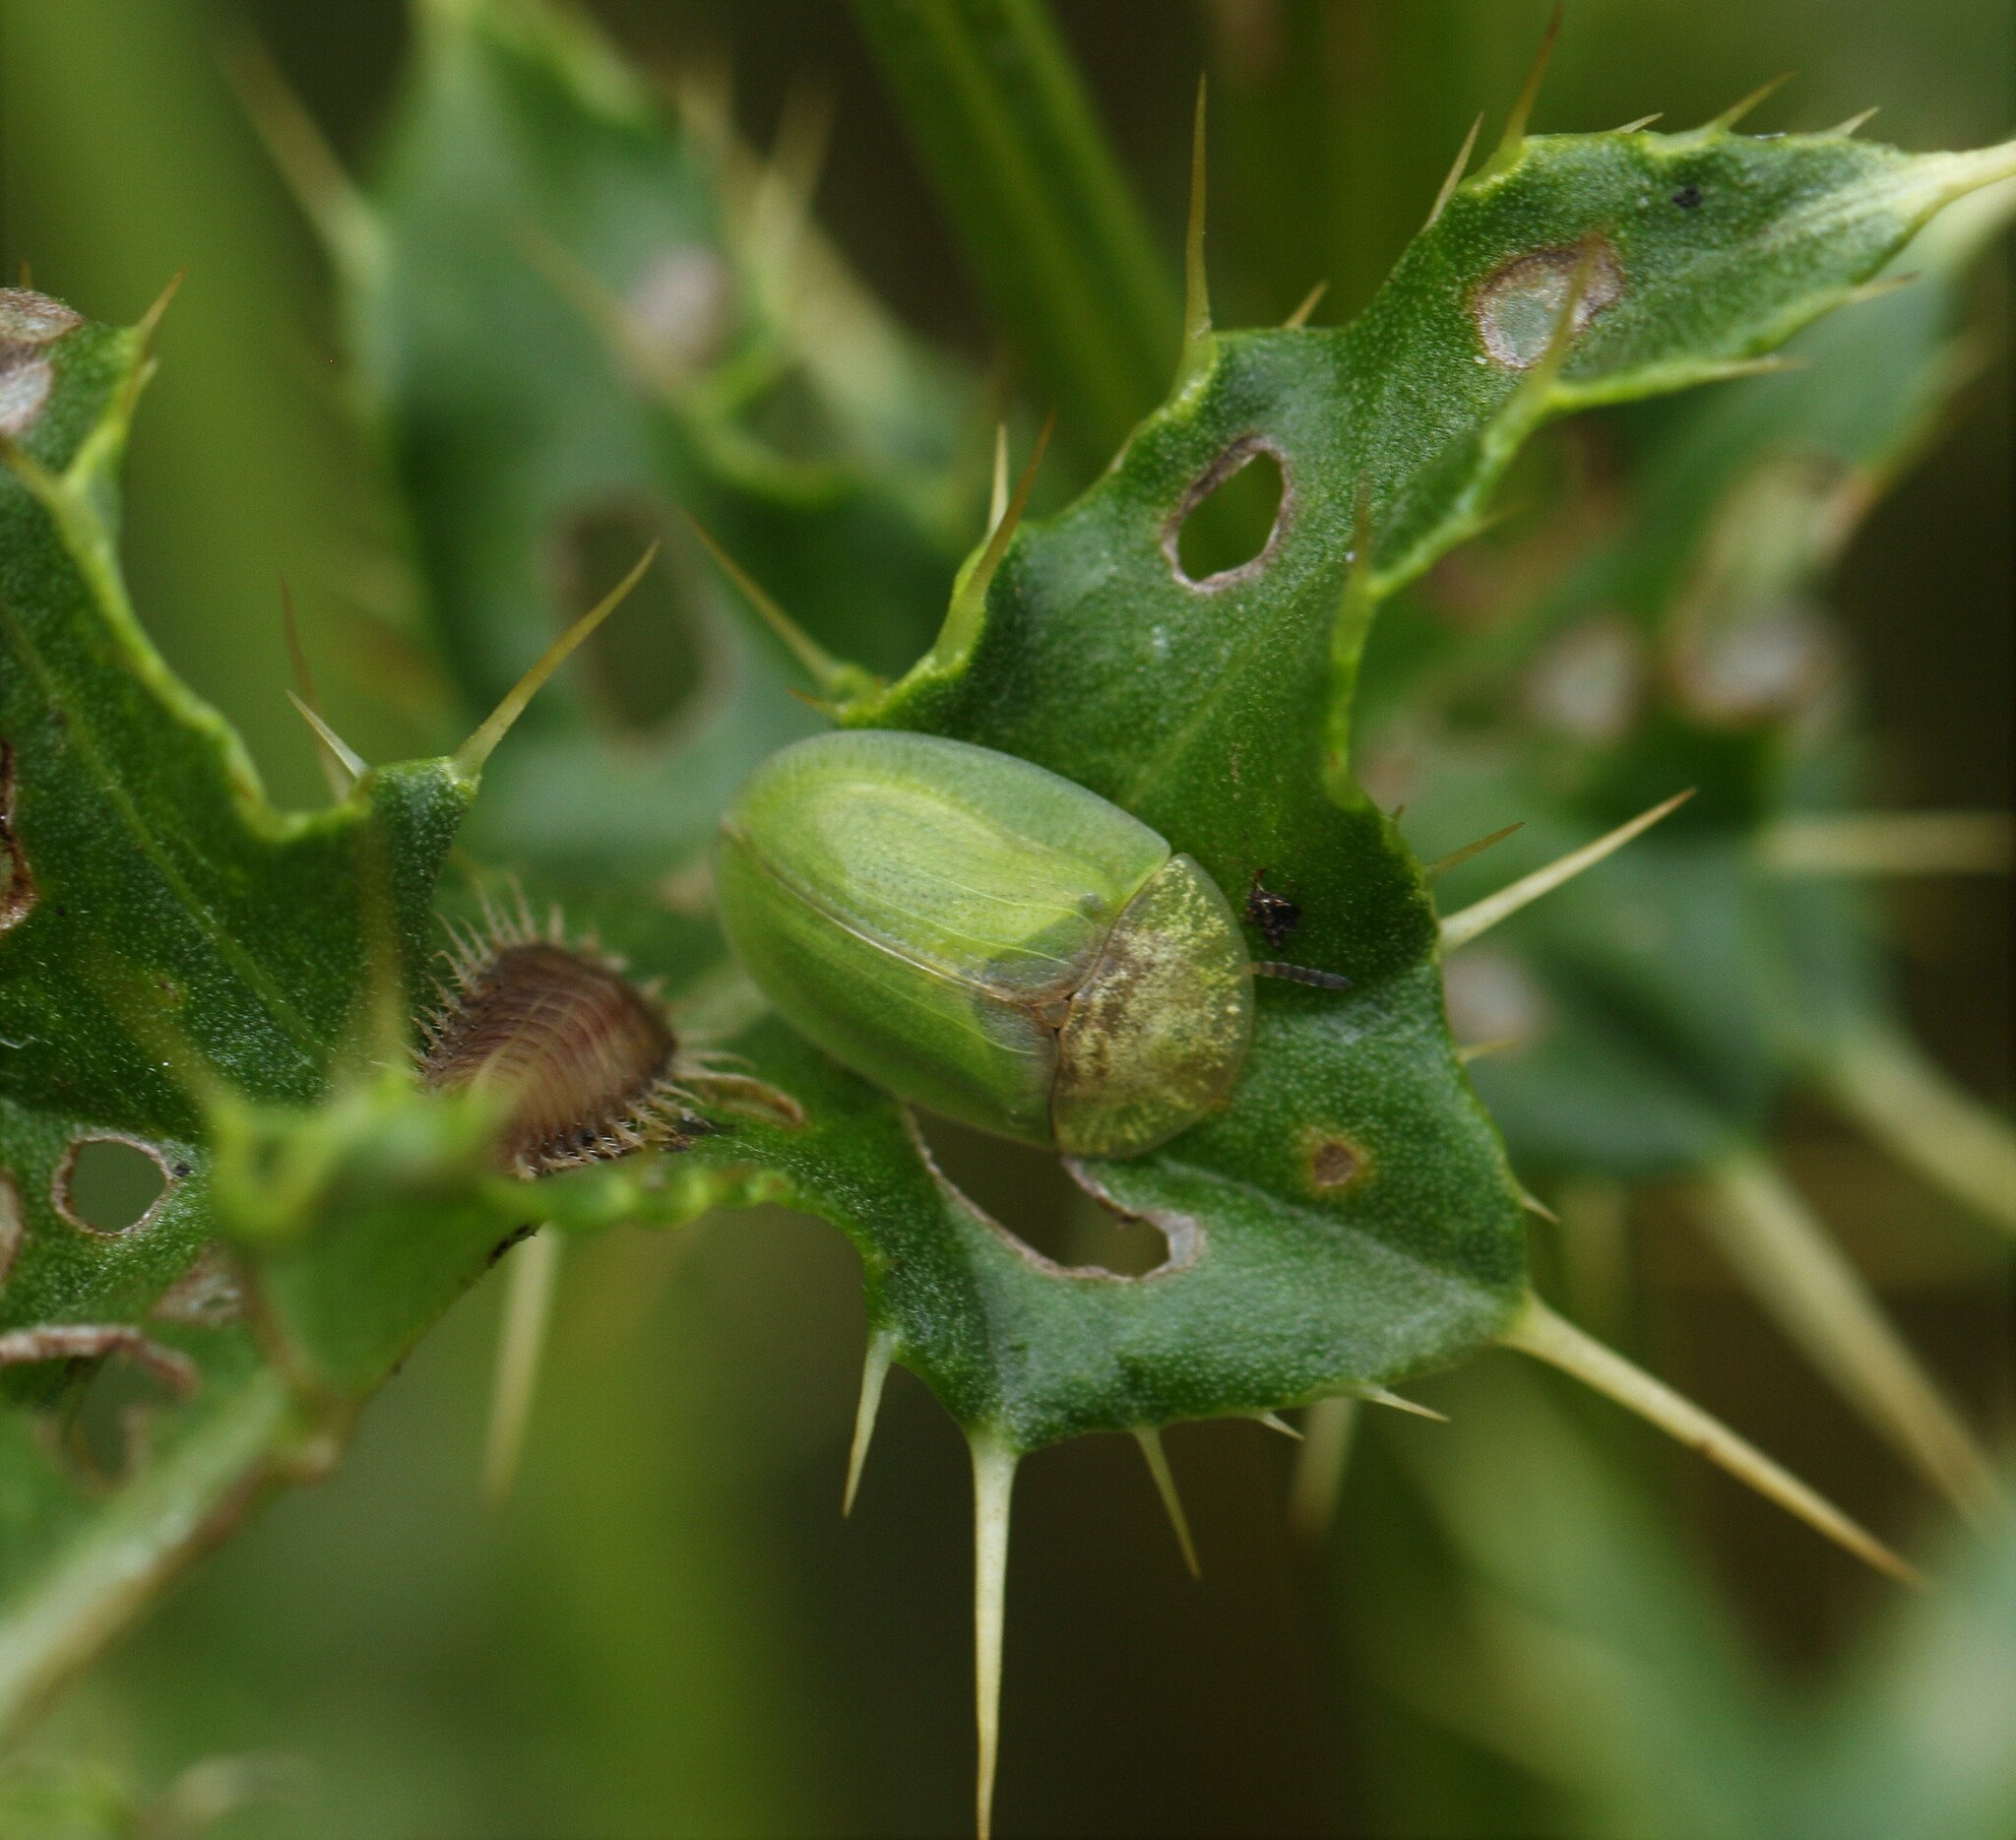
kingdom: Animalia
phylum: Arthropoda
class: Insecta
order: Coleoptera
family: Chrysomelidae
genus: Cassida
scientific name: Cassida rubiginosa
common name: Thistle tortoise beetle
